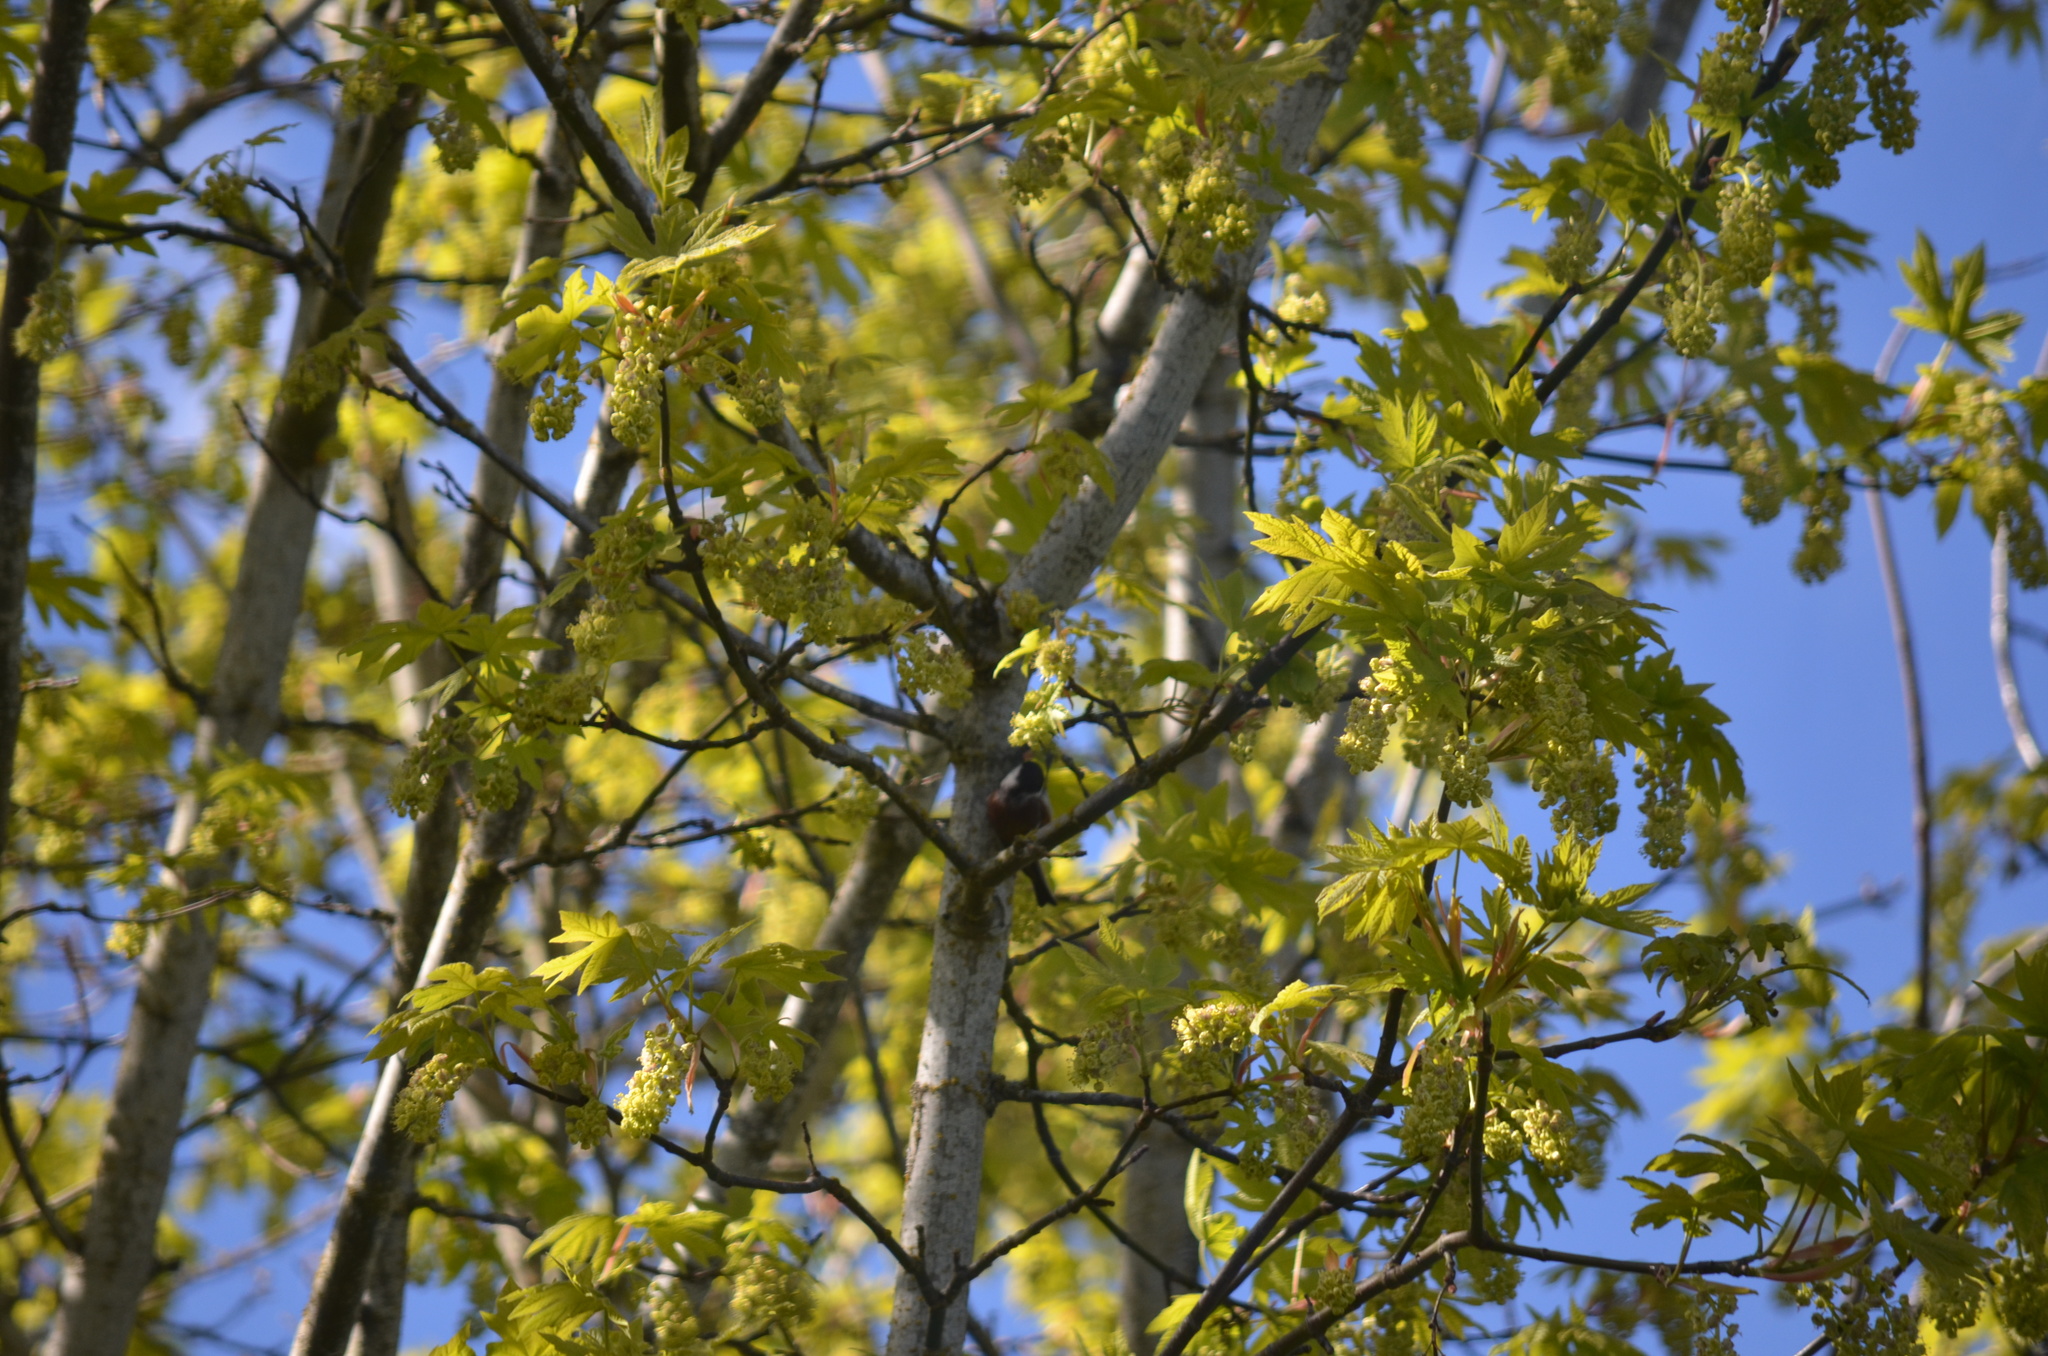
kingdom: Animalia
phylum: Chordata
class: Aves
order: Passeriformes
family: Paridae
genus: Poecile
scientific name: Poecile rufescens
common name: Chestnut-backed chickadee
